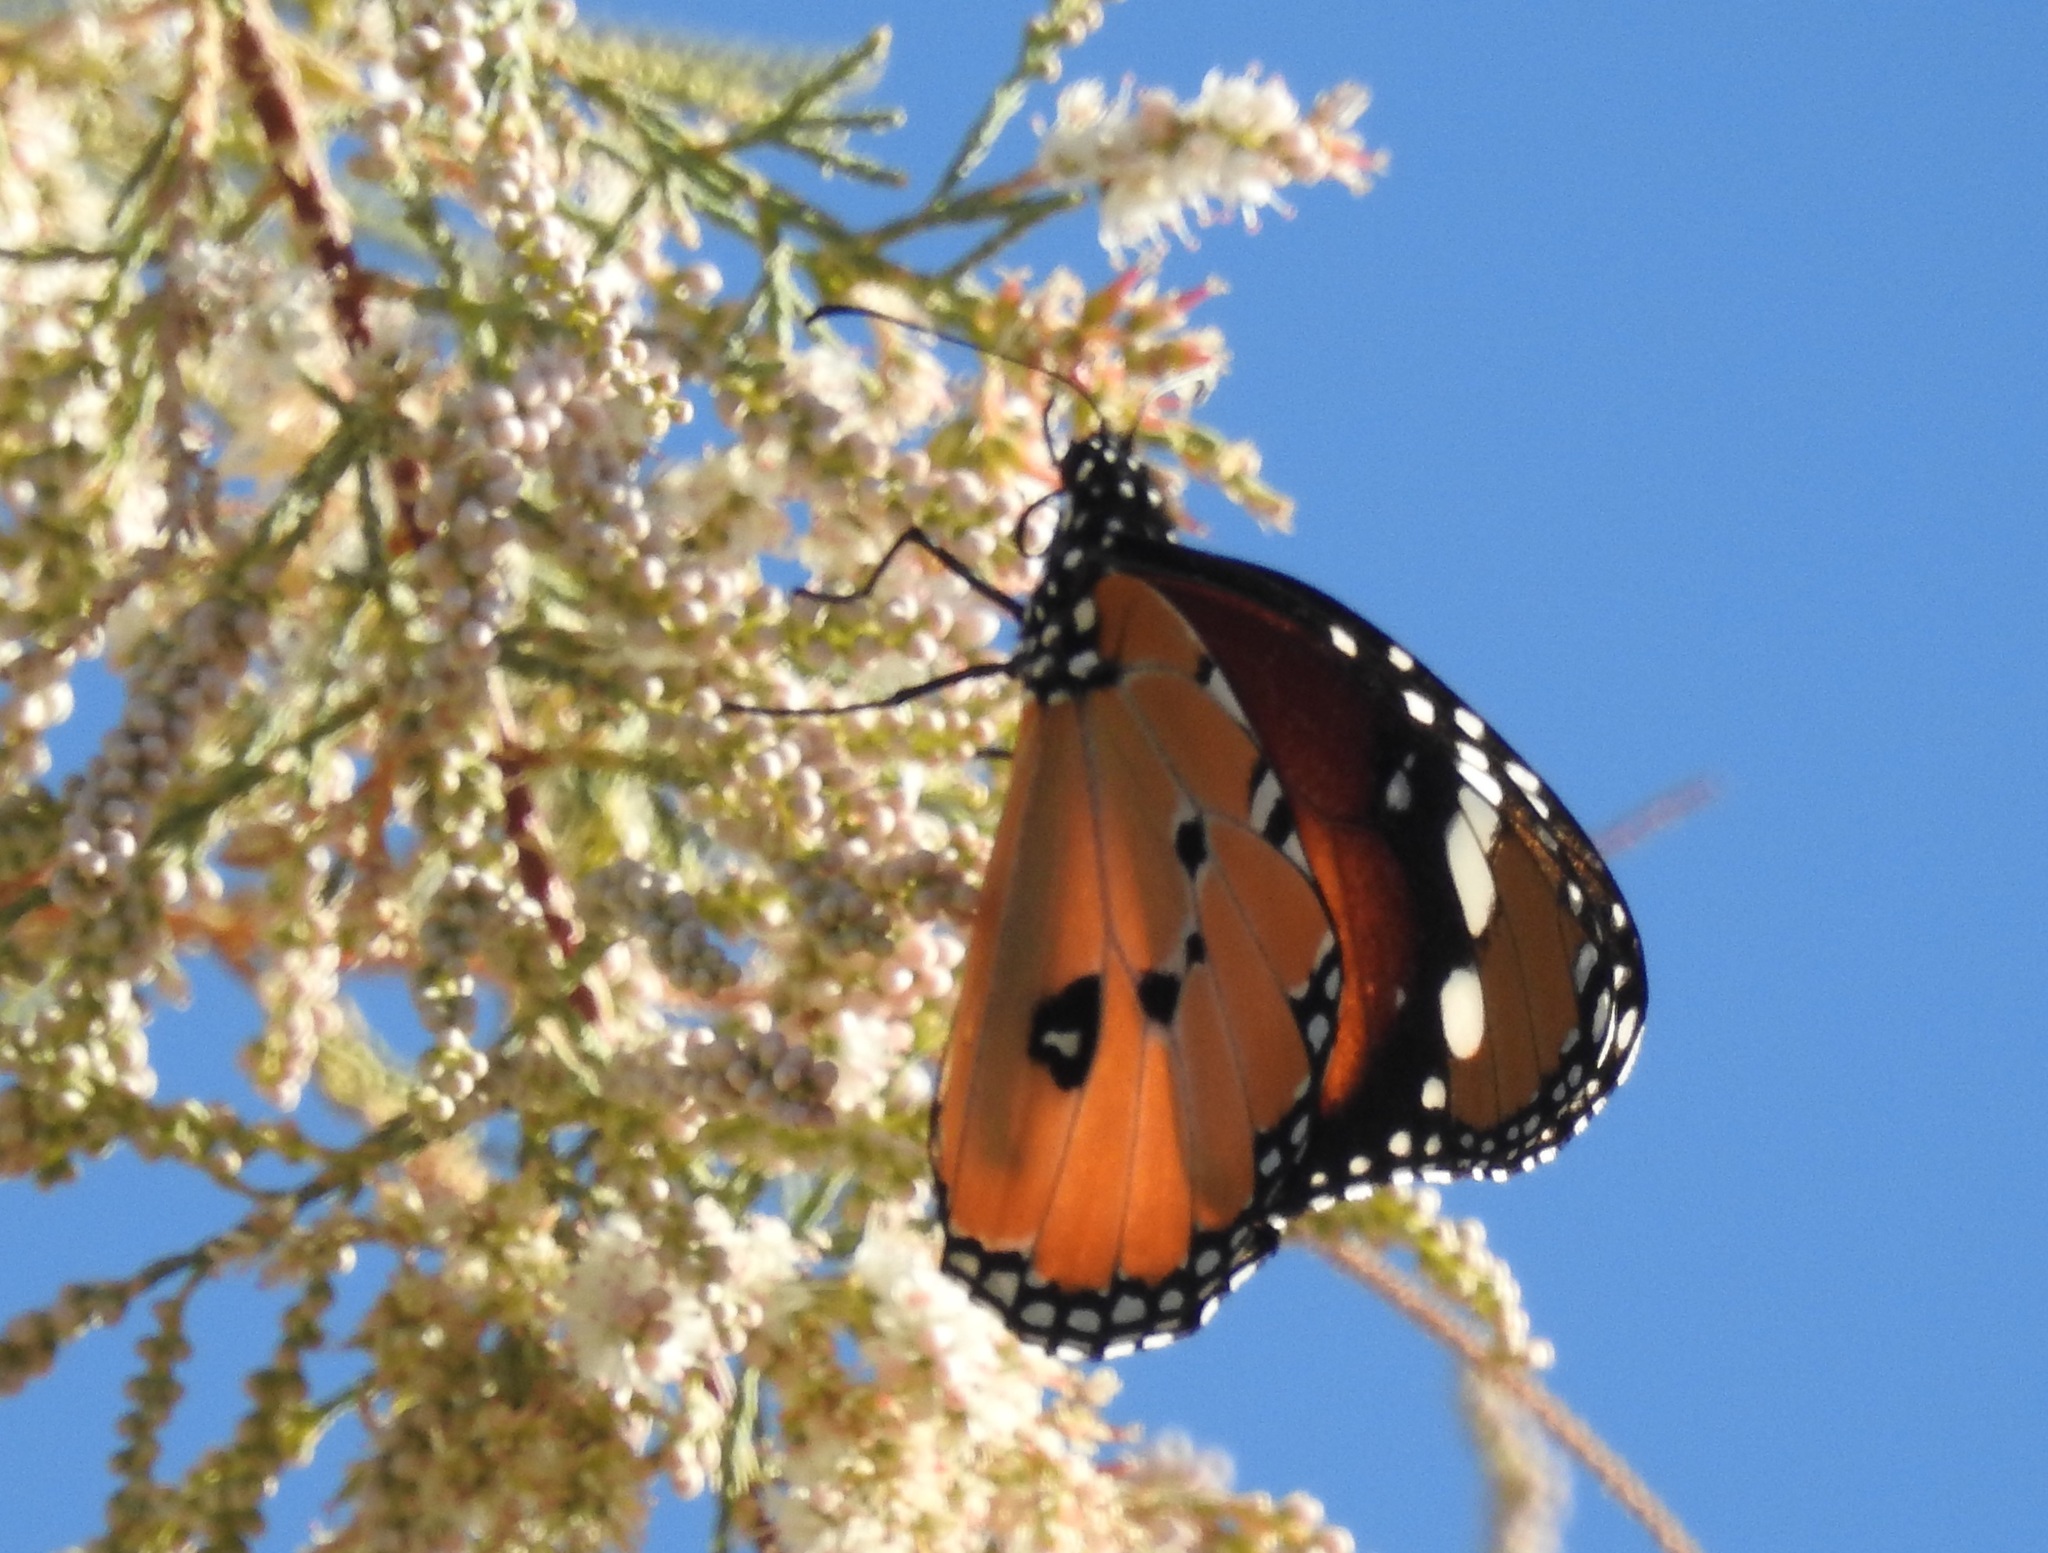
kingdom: Animalia
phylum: Arthropoda
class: Insecta
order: Lepidoptera
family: Nymphalidae
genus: Danaus
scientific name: Danaus chrysippus
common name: Plain tiger
